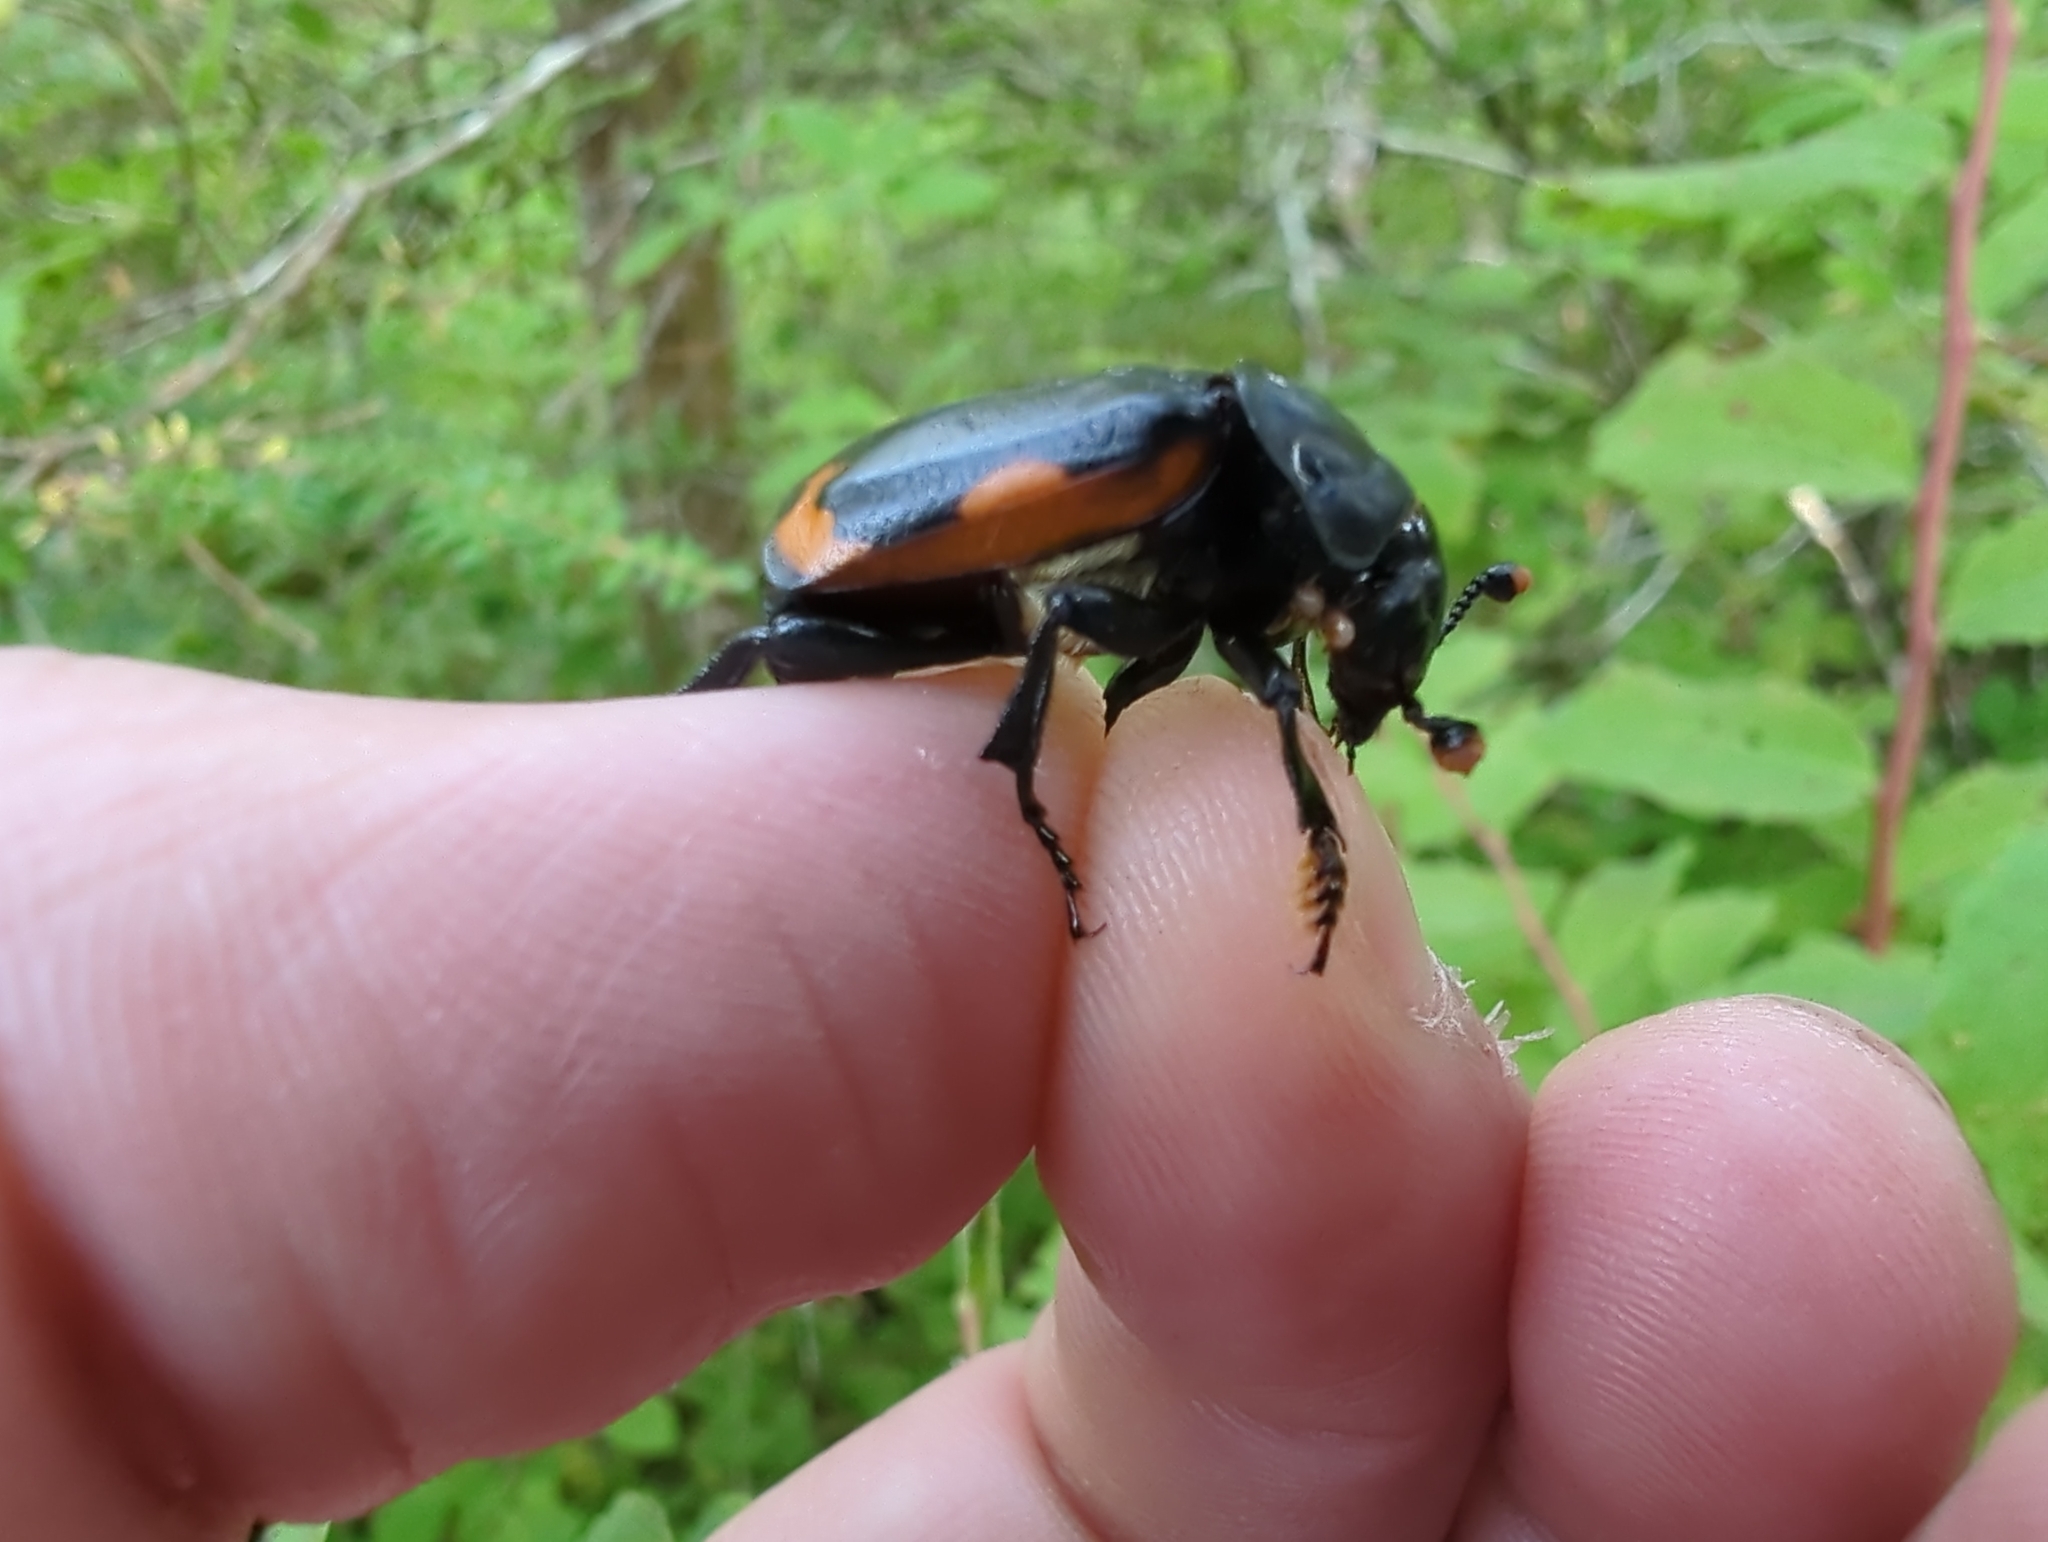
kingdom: Animalia
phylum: Arthropoda
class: Insecta
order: Coleoptera
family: Staphylinidae
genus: Nicrophorus
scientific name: Nicrophorus investigator
